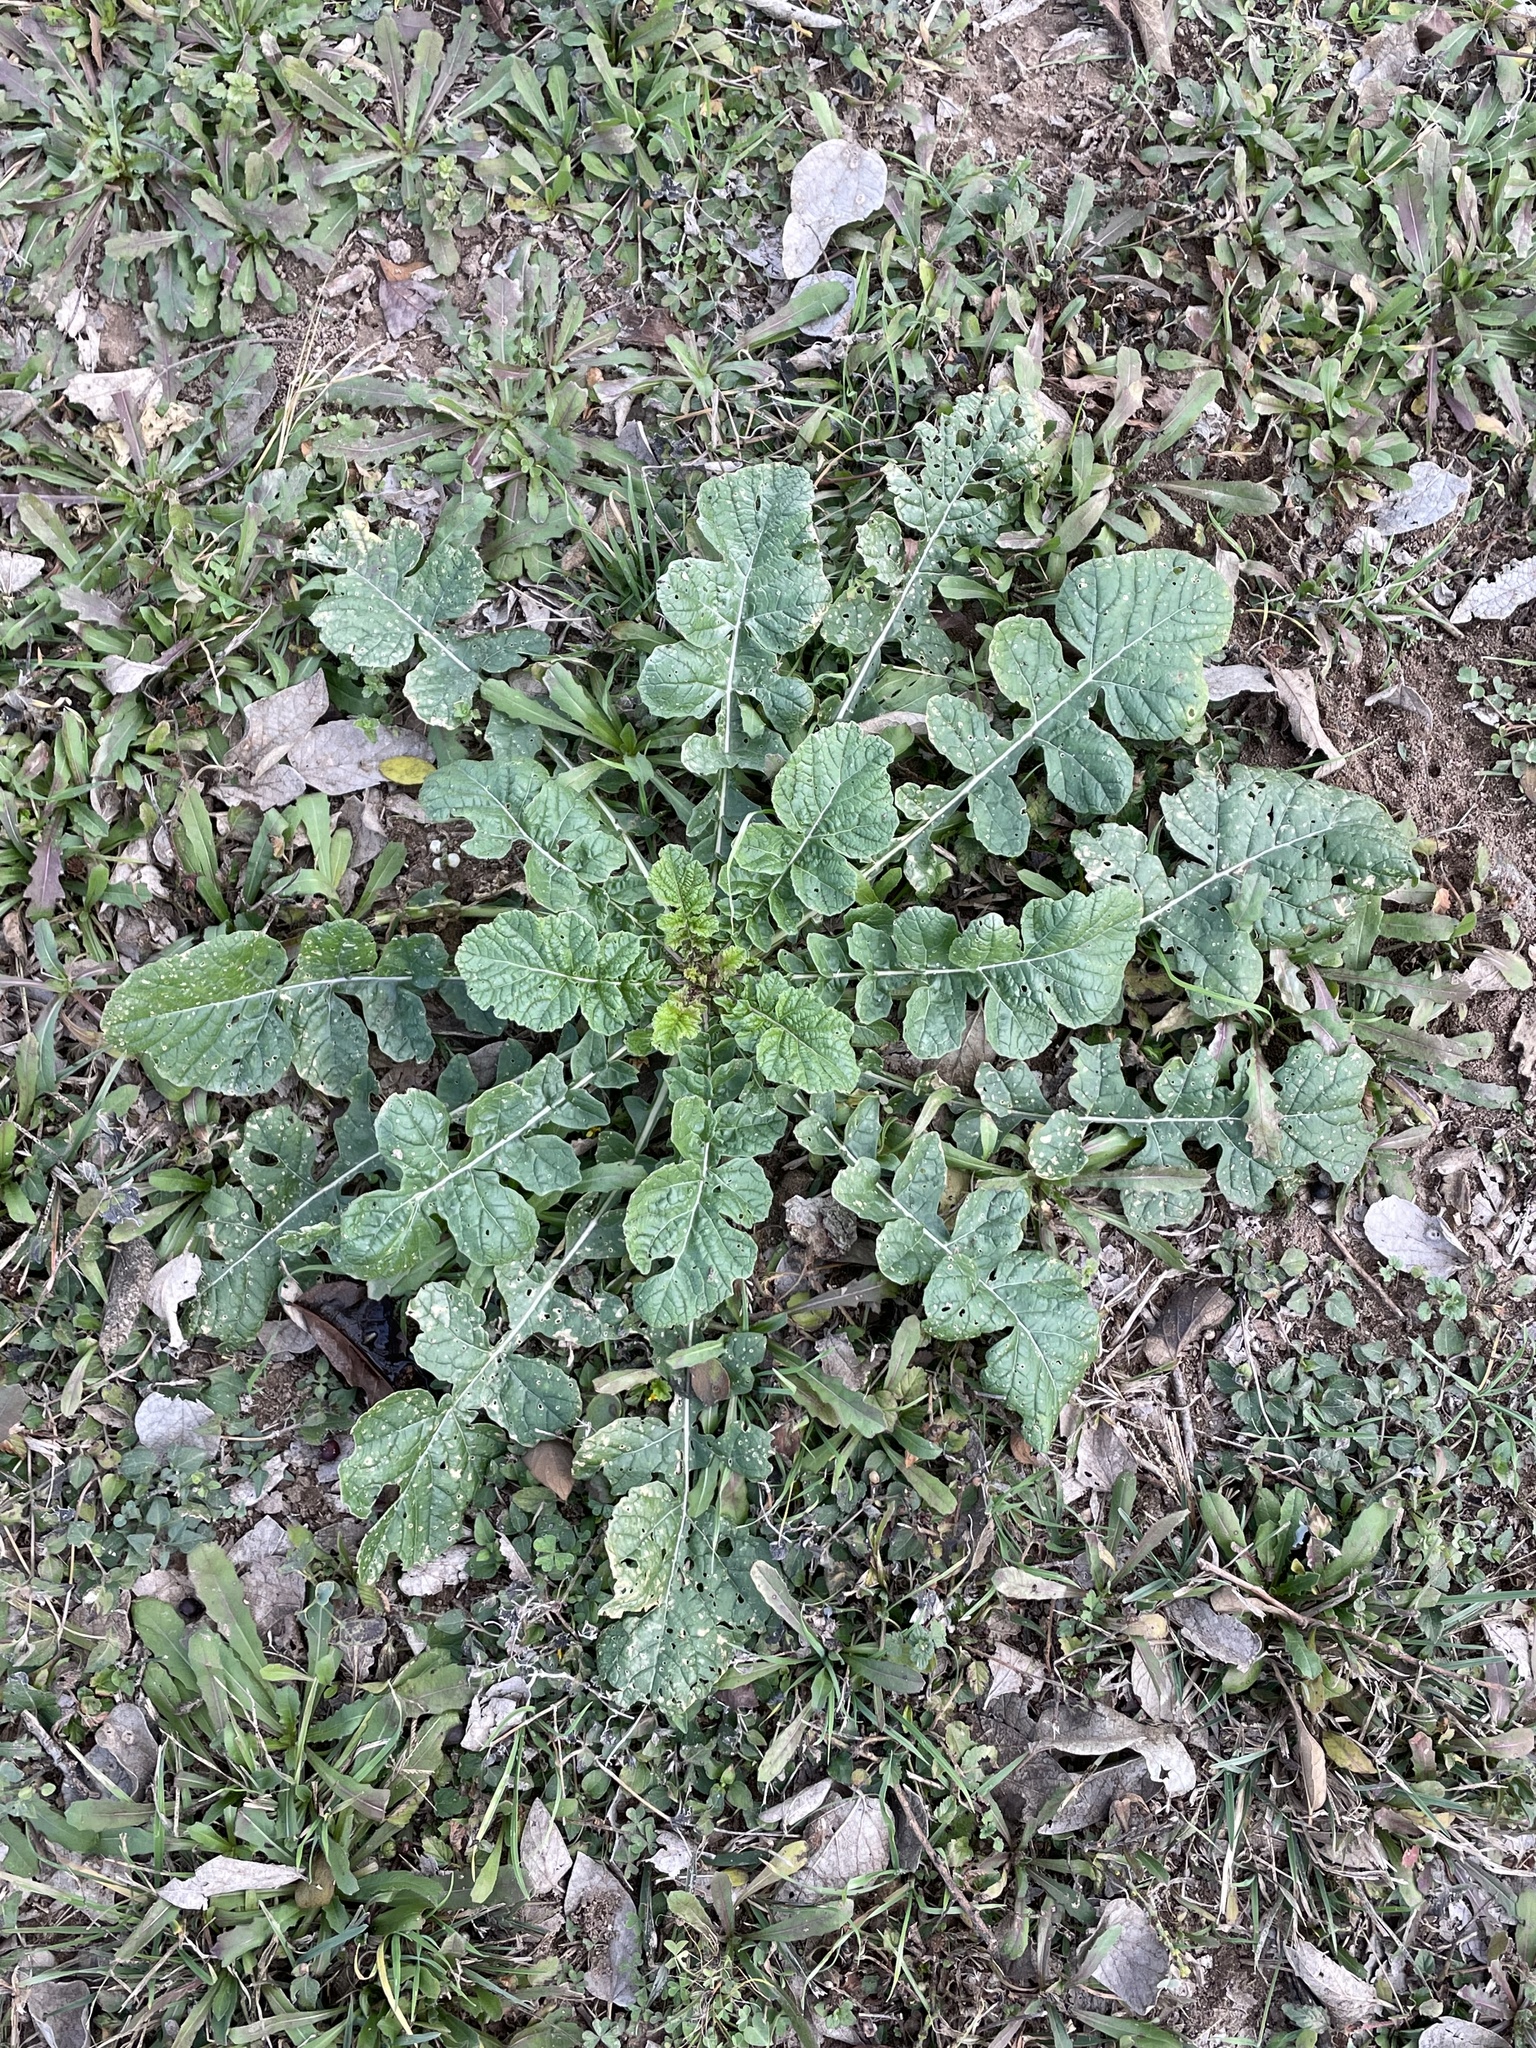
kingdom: Plantae
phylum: Tracheophyta
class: Magnoliopsida
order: Brassicales
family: Brassicaceae
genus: Rapistrum
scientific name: Rapistrum rugosum
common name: Annual bastardcabbage
